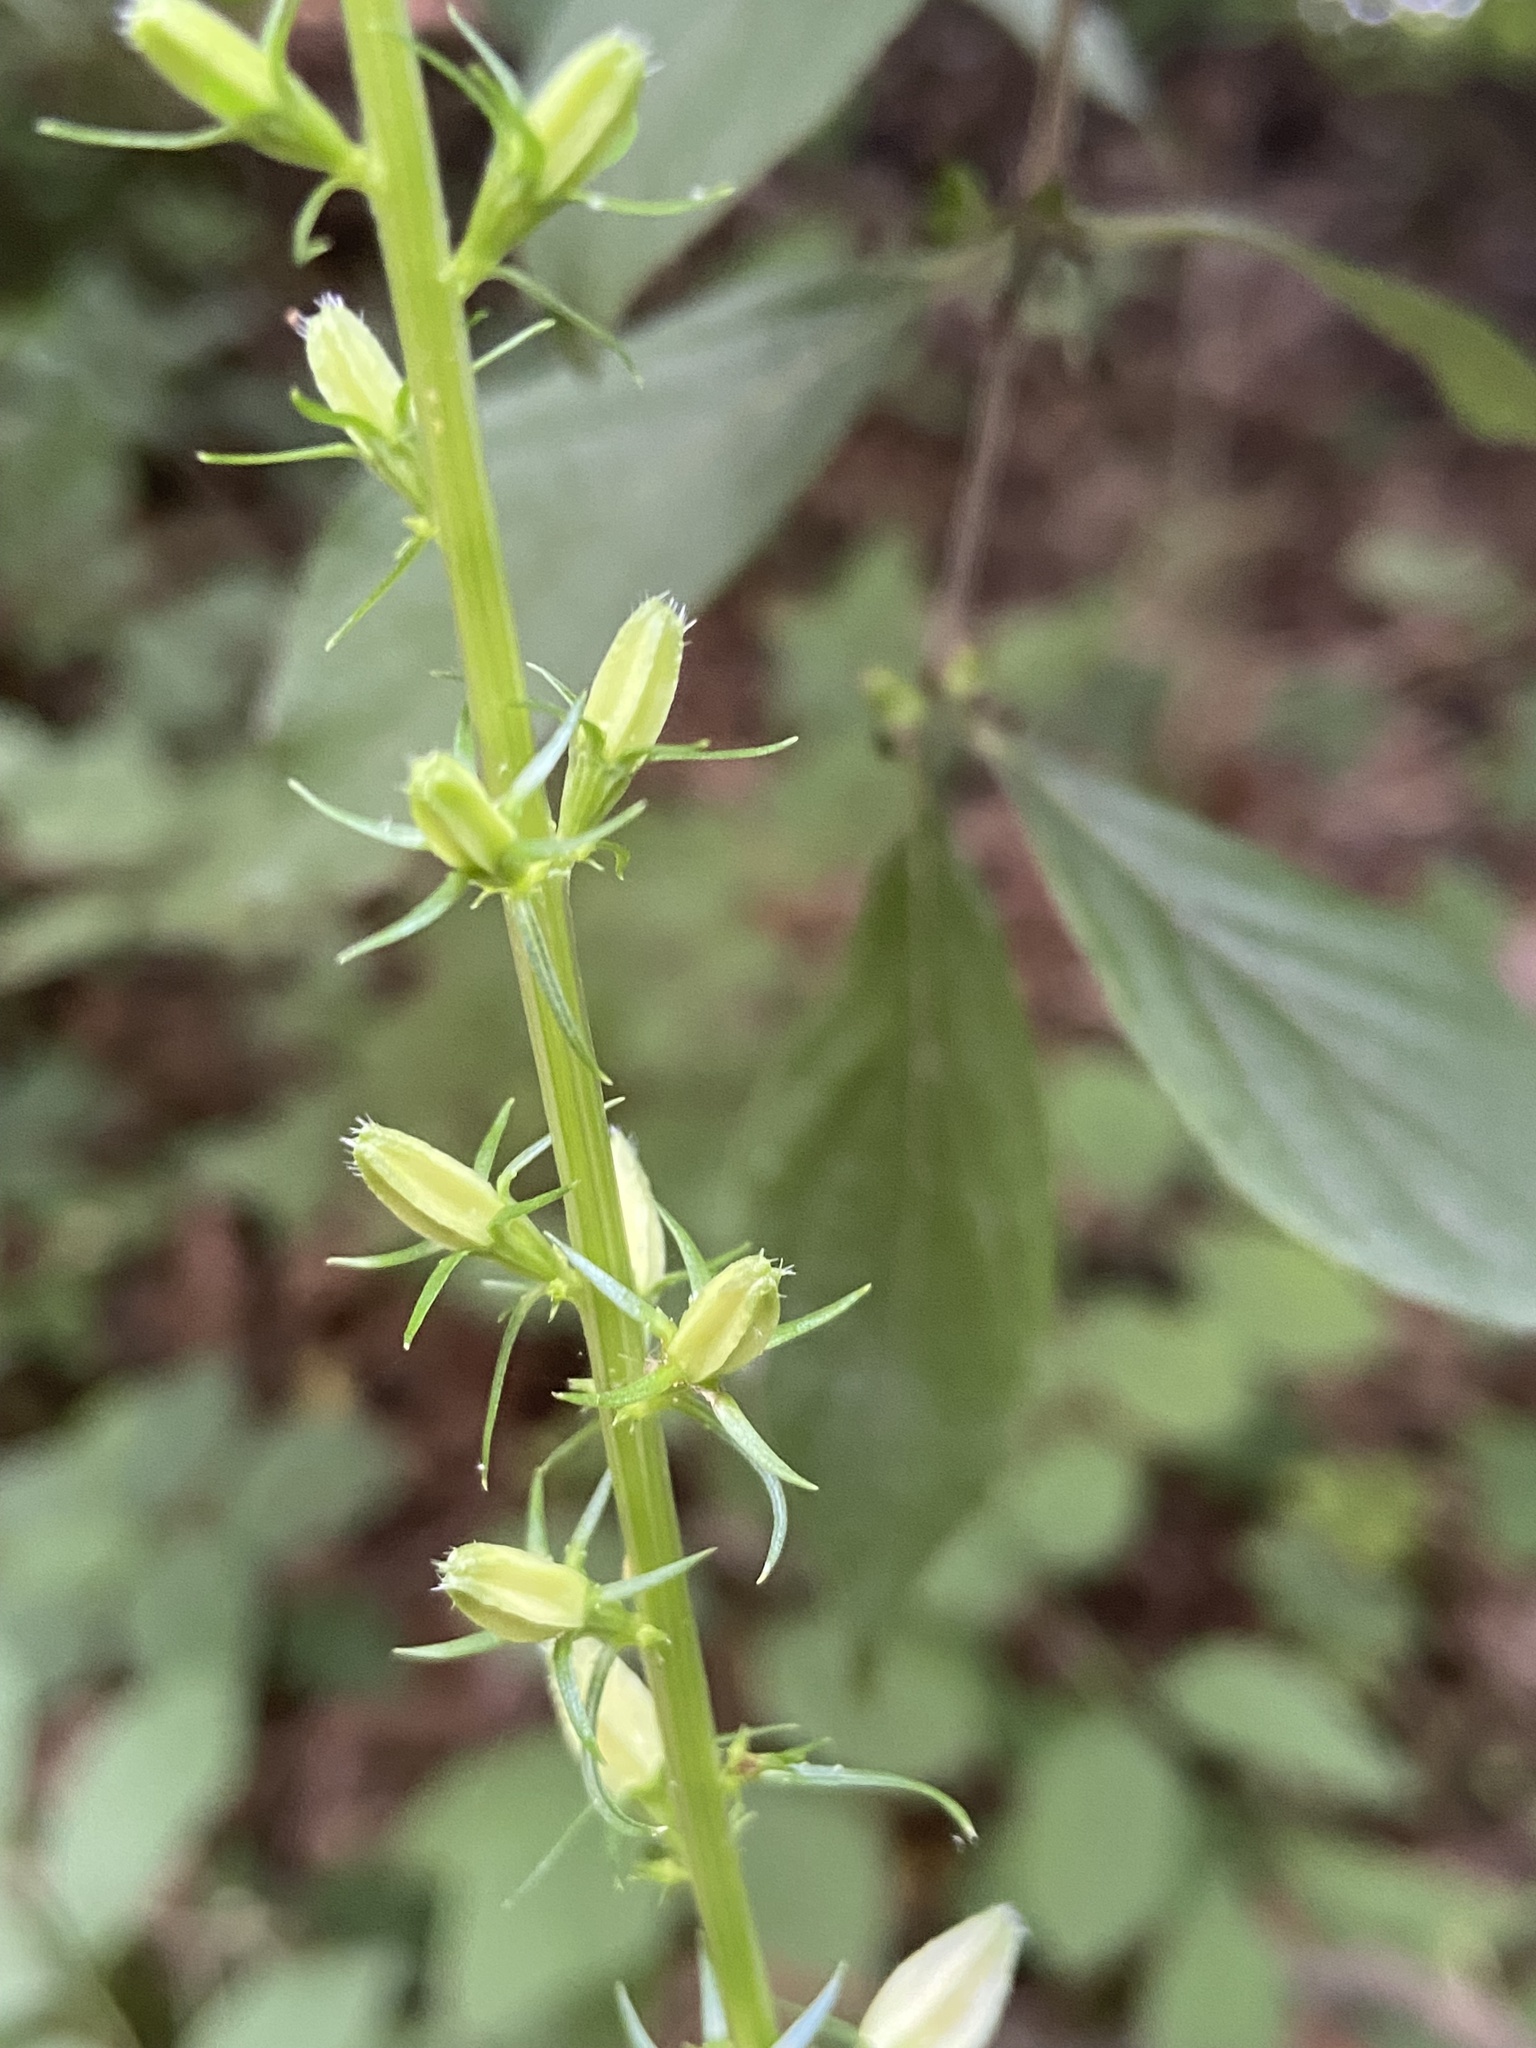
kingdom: Plantae
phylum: Tracheophyta
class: Magnoliopsida
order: Asterales
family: Campanulaceae
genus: Campanulastrum
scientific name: Campanulastrum americanum
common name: American bellflower
